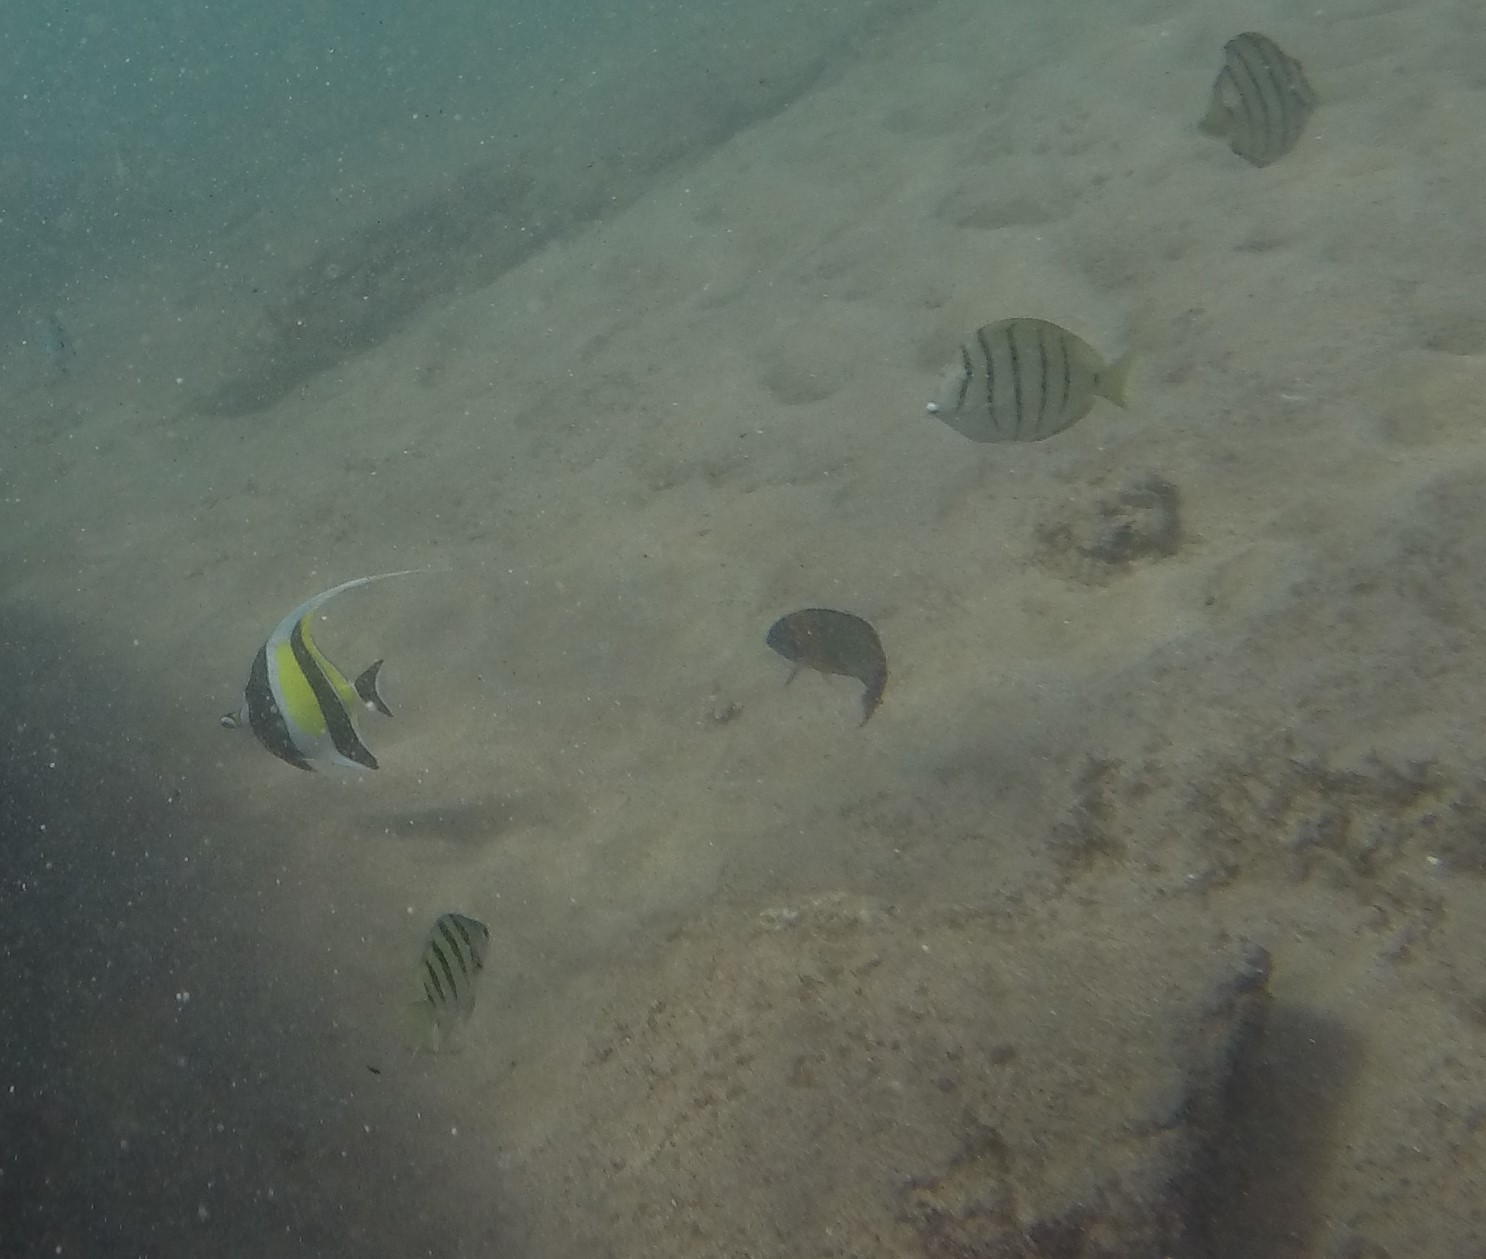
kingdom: Animalia
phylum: Chordata
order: Perciformes
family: Acanthuridae
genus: Acanthurus
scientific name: Acanthurus triostegus
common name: Convict surgeonfish
